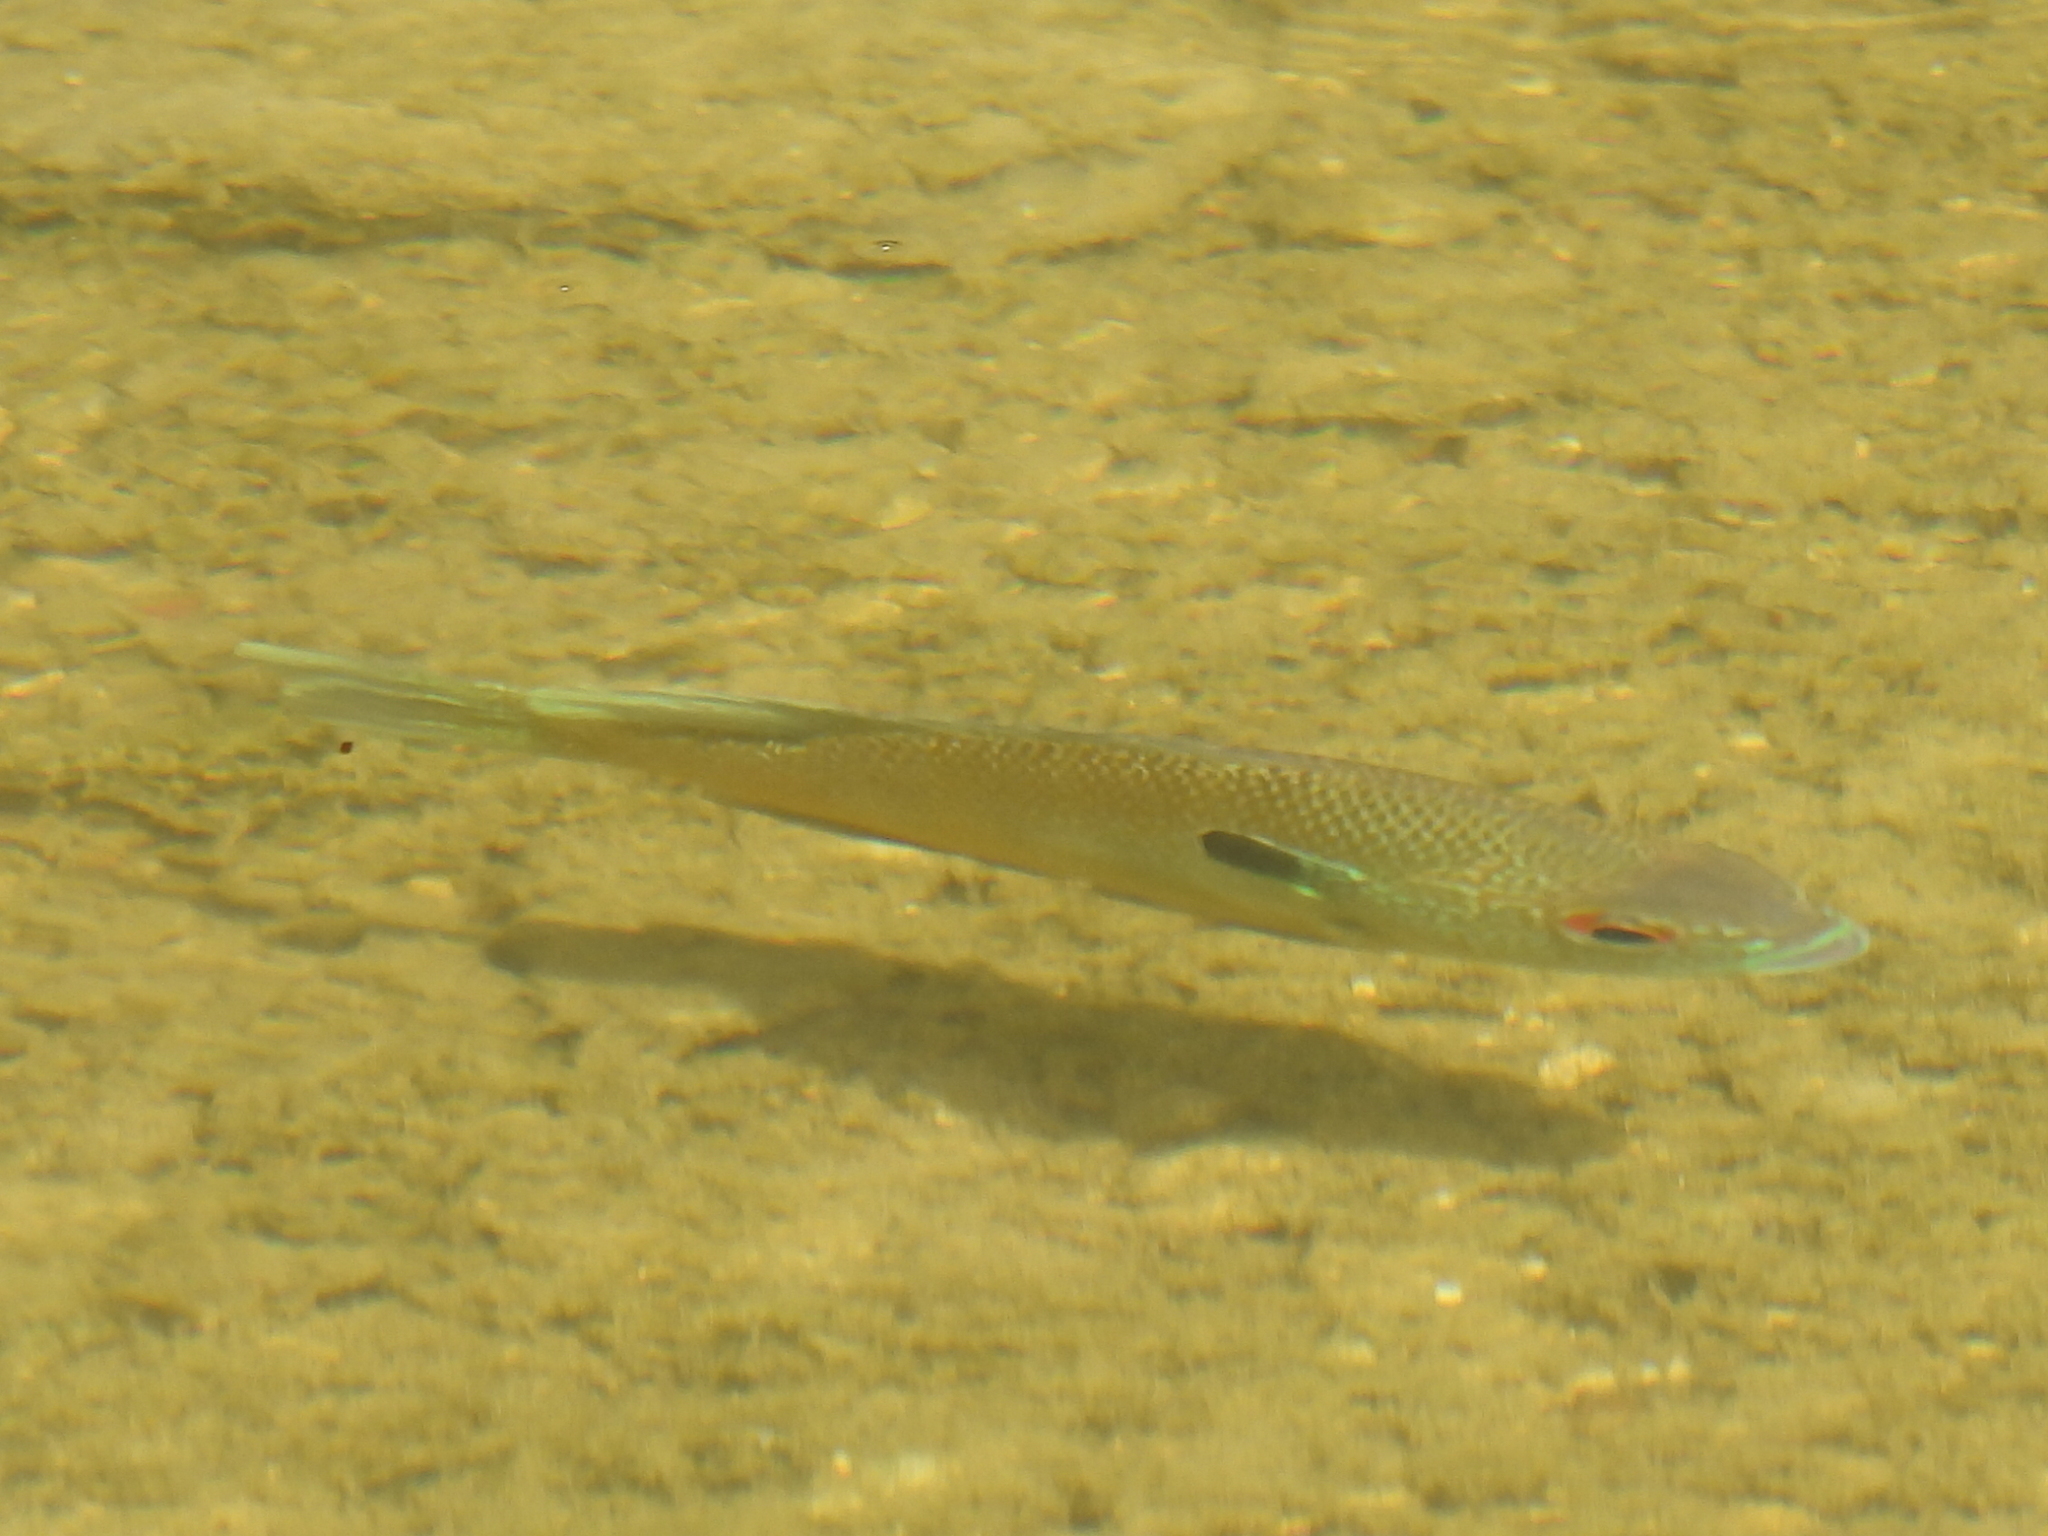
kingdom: Animalia
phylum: Chordata
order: Perciformes
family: Centrarchidae
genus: Lepomis
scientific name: Lepomis aquilensis
